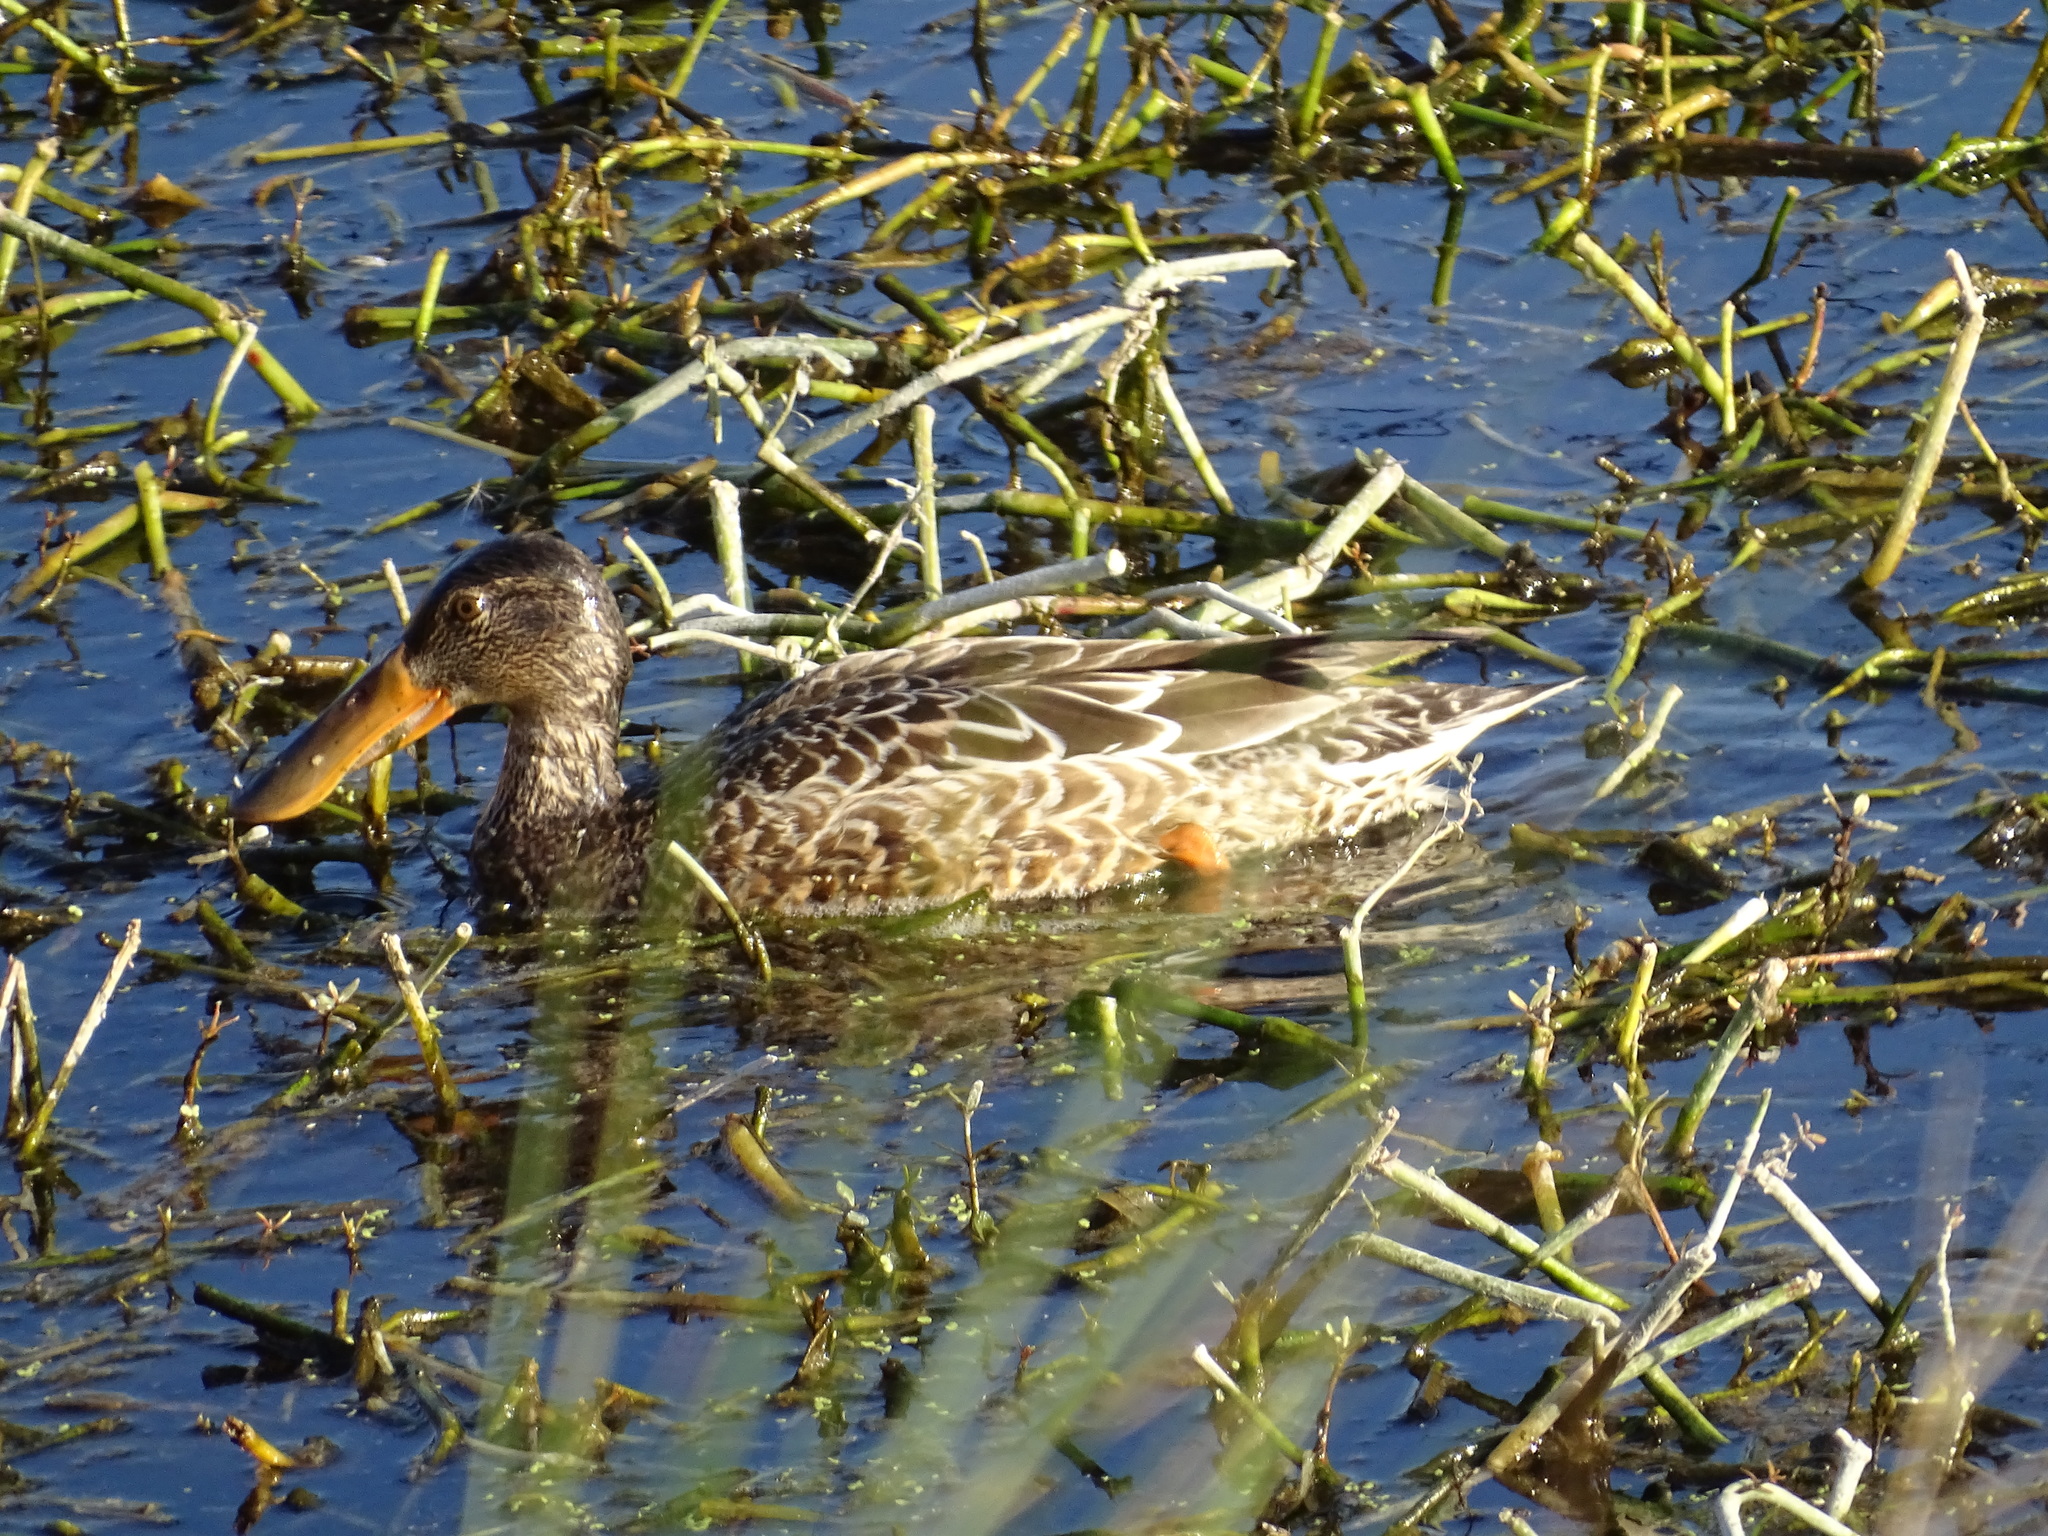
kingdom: Animalia
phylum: Chordata
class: Aves
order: Anseriformes
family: Anatidae
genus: Spatula
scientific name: Spatula clypeata
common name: Northern shoveler
